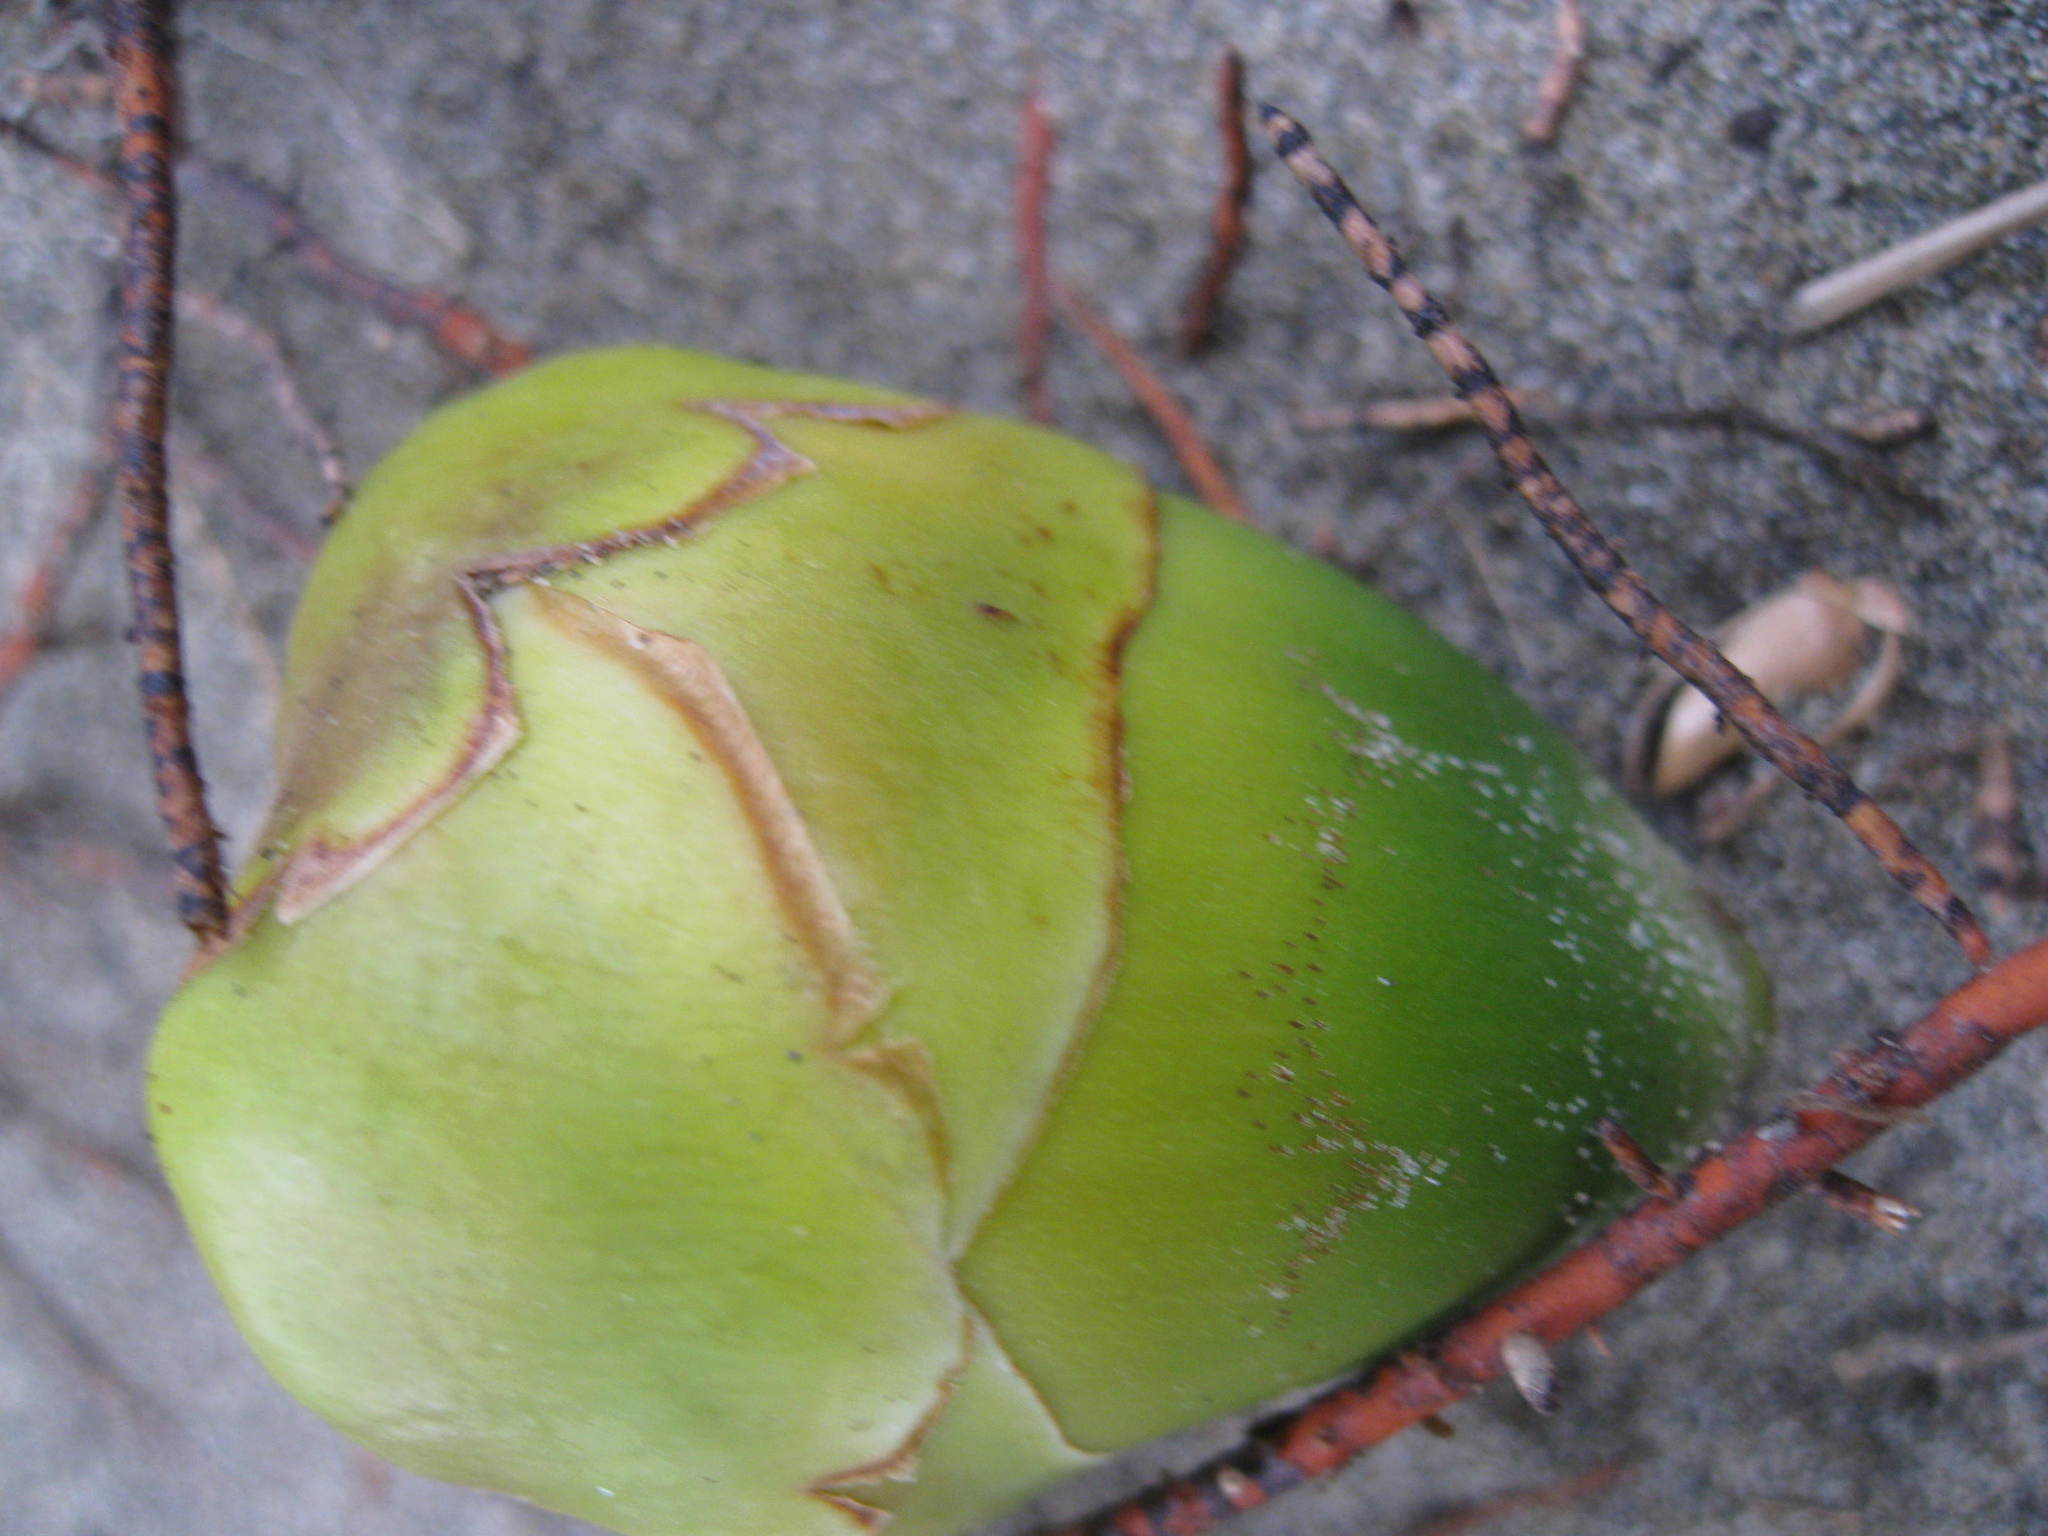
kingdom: Plantae
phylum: Tracheophyta
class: Liliopsida
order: Arecales
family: Arecaceae
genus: Cocos
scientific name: Cocos nucifera
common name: Coconut palm
